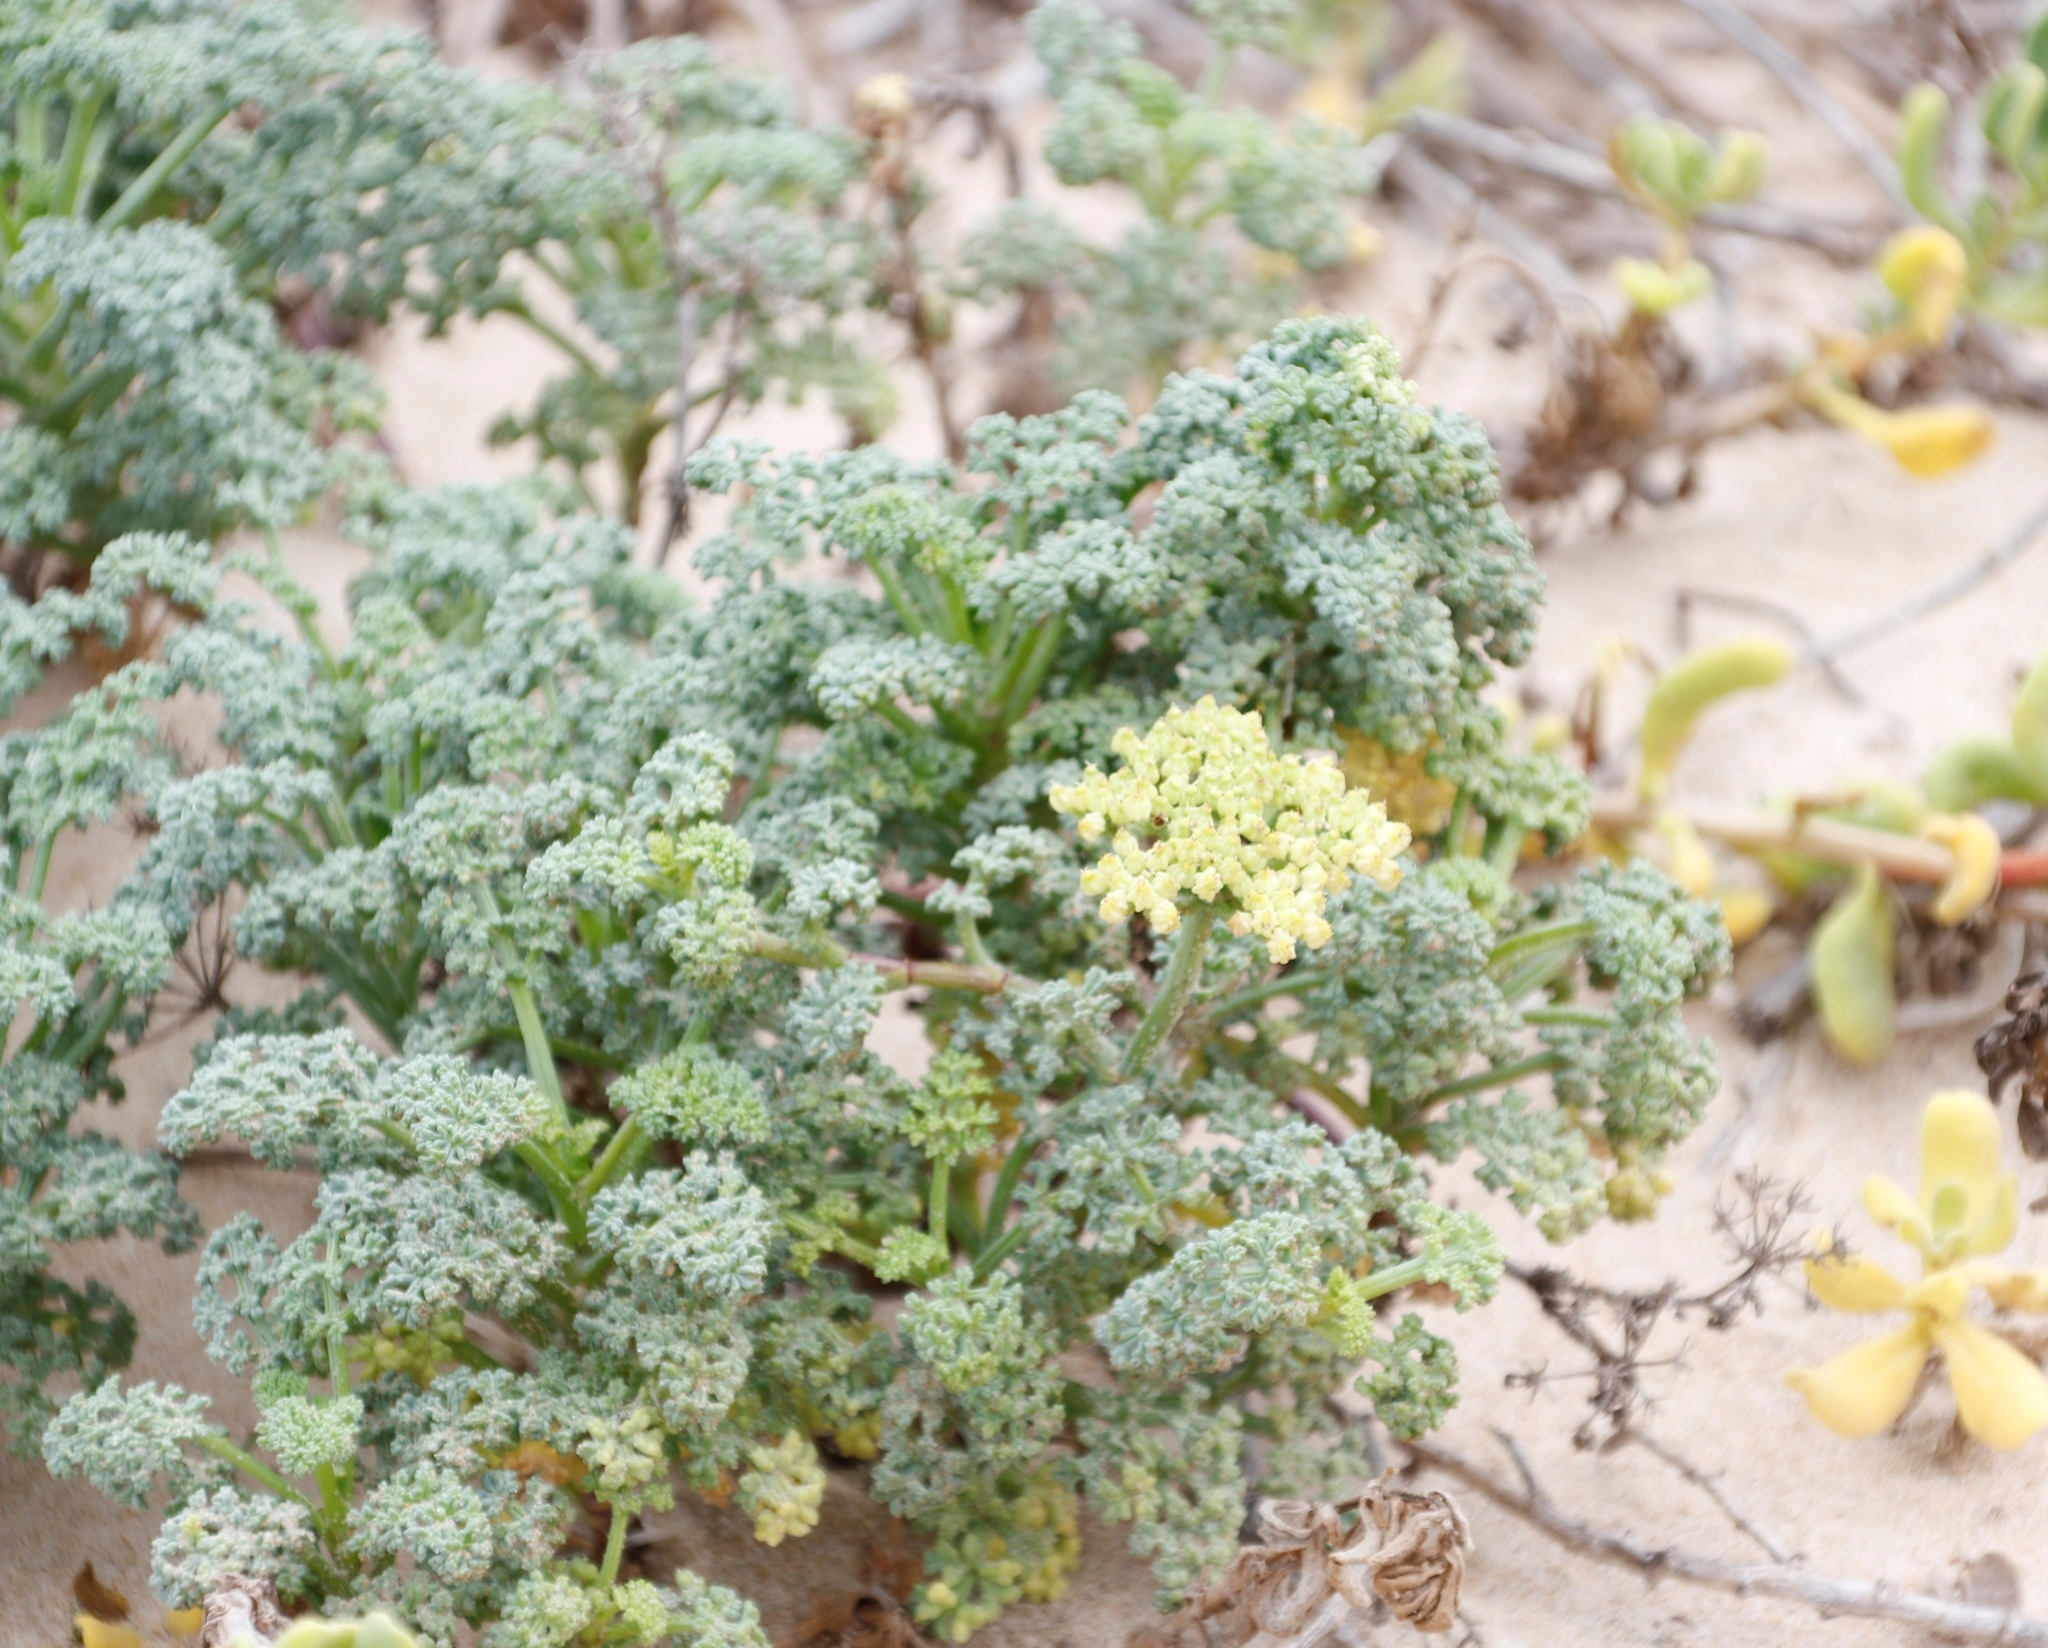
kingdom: Plantae
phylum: Tracheophyta
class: Magnoliopsida
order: Apiales
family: Apiaceae
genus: Dasispermum
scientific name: Dasispermum suffruticosum
